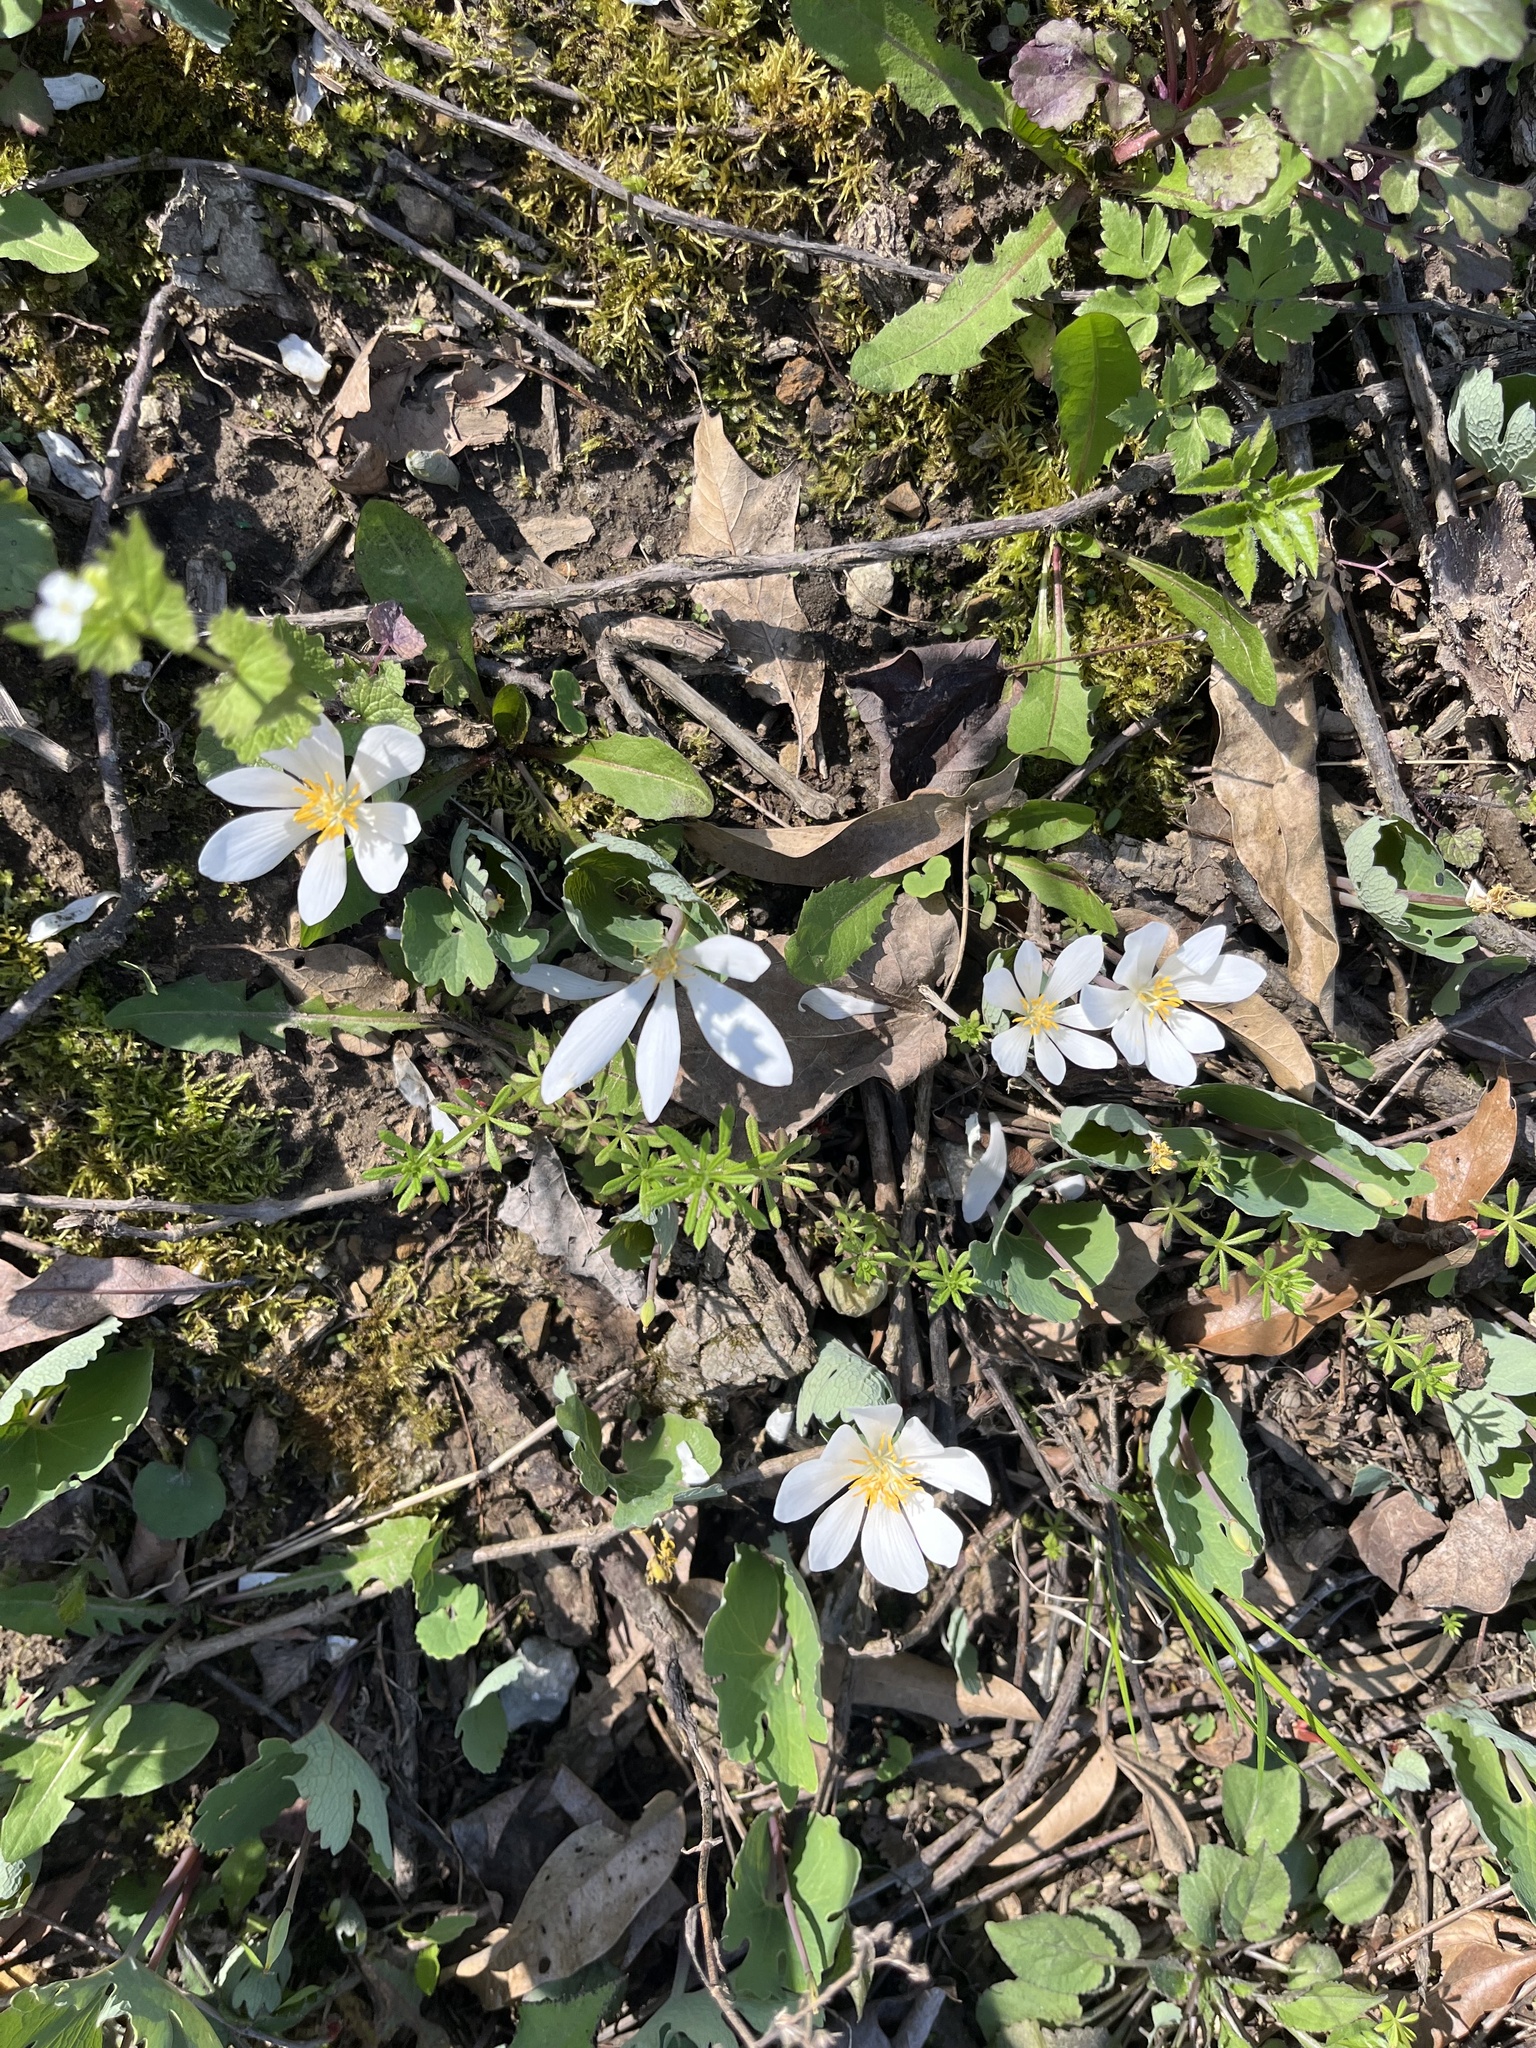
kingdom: Plantae
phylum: Tracheophyta
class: Magnoliopsida
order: Ranunculales
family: Papaveraceae
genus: Sanguinaria
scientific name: Sanguinaria canadensis
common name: Bloodroot
